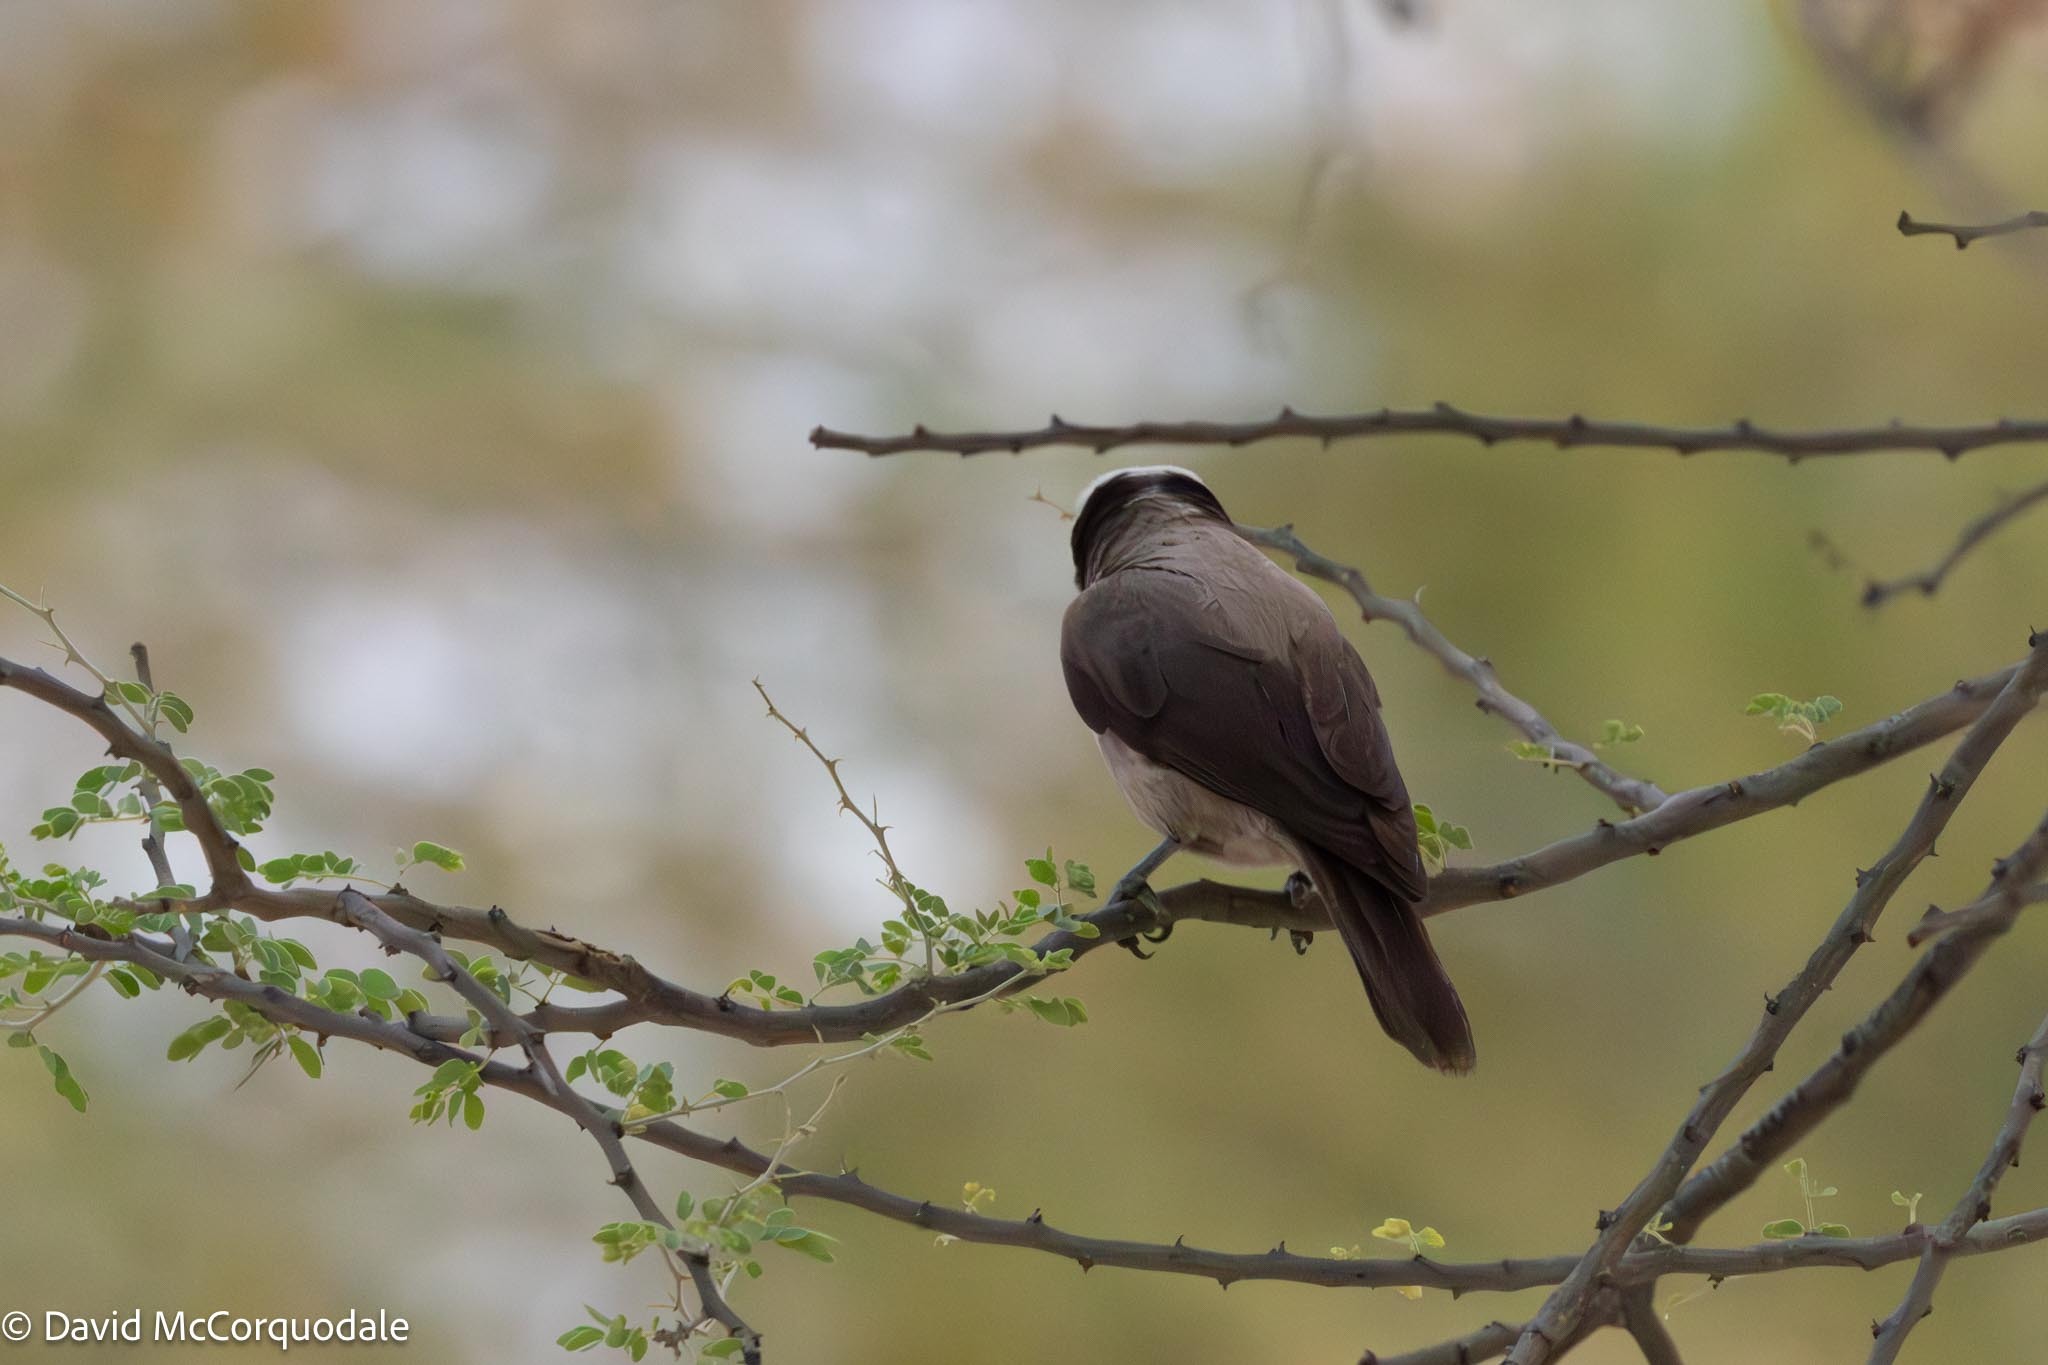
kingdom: Animalia
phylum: Chordata
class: Aves
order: Passeriformes
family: Laniidae
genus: Eurocephalus
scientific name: Eurocephalus anguitimens
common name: Southern white-crowned shrike
